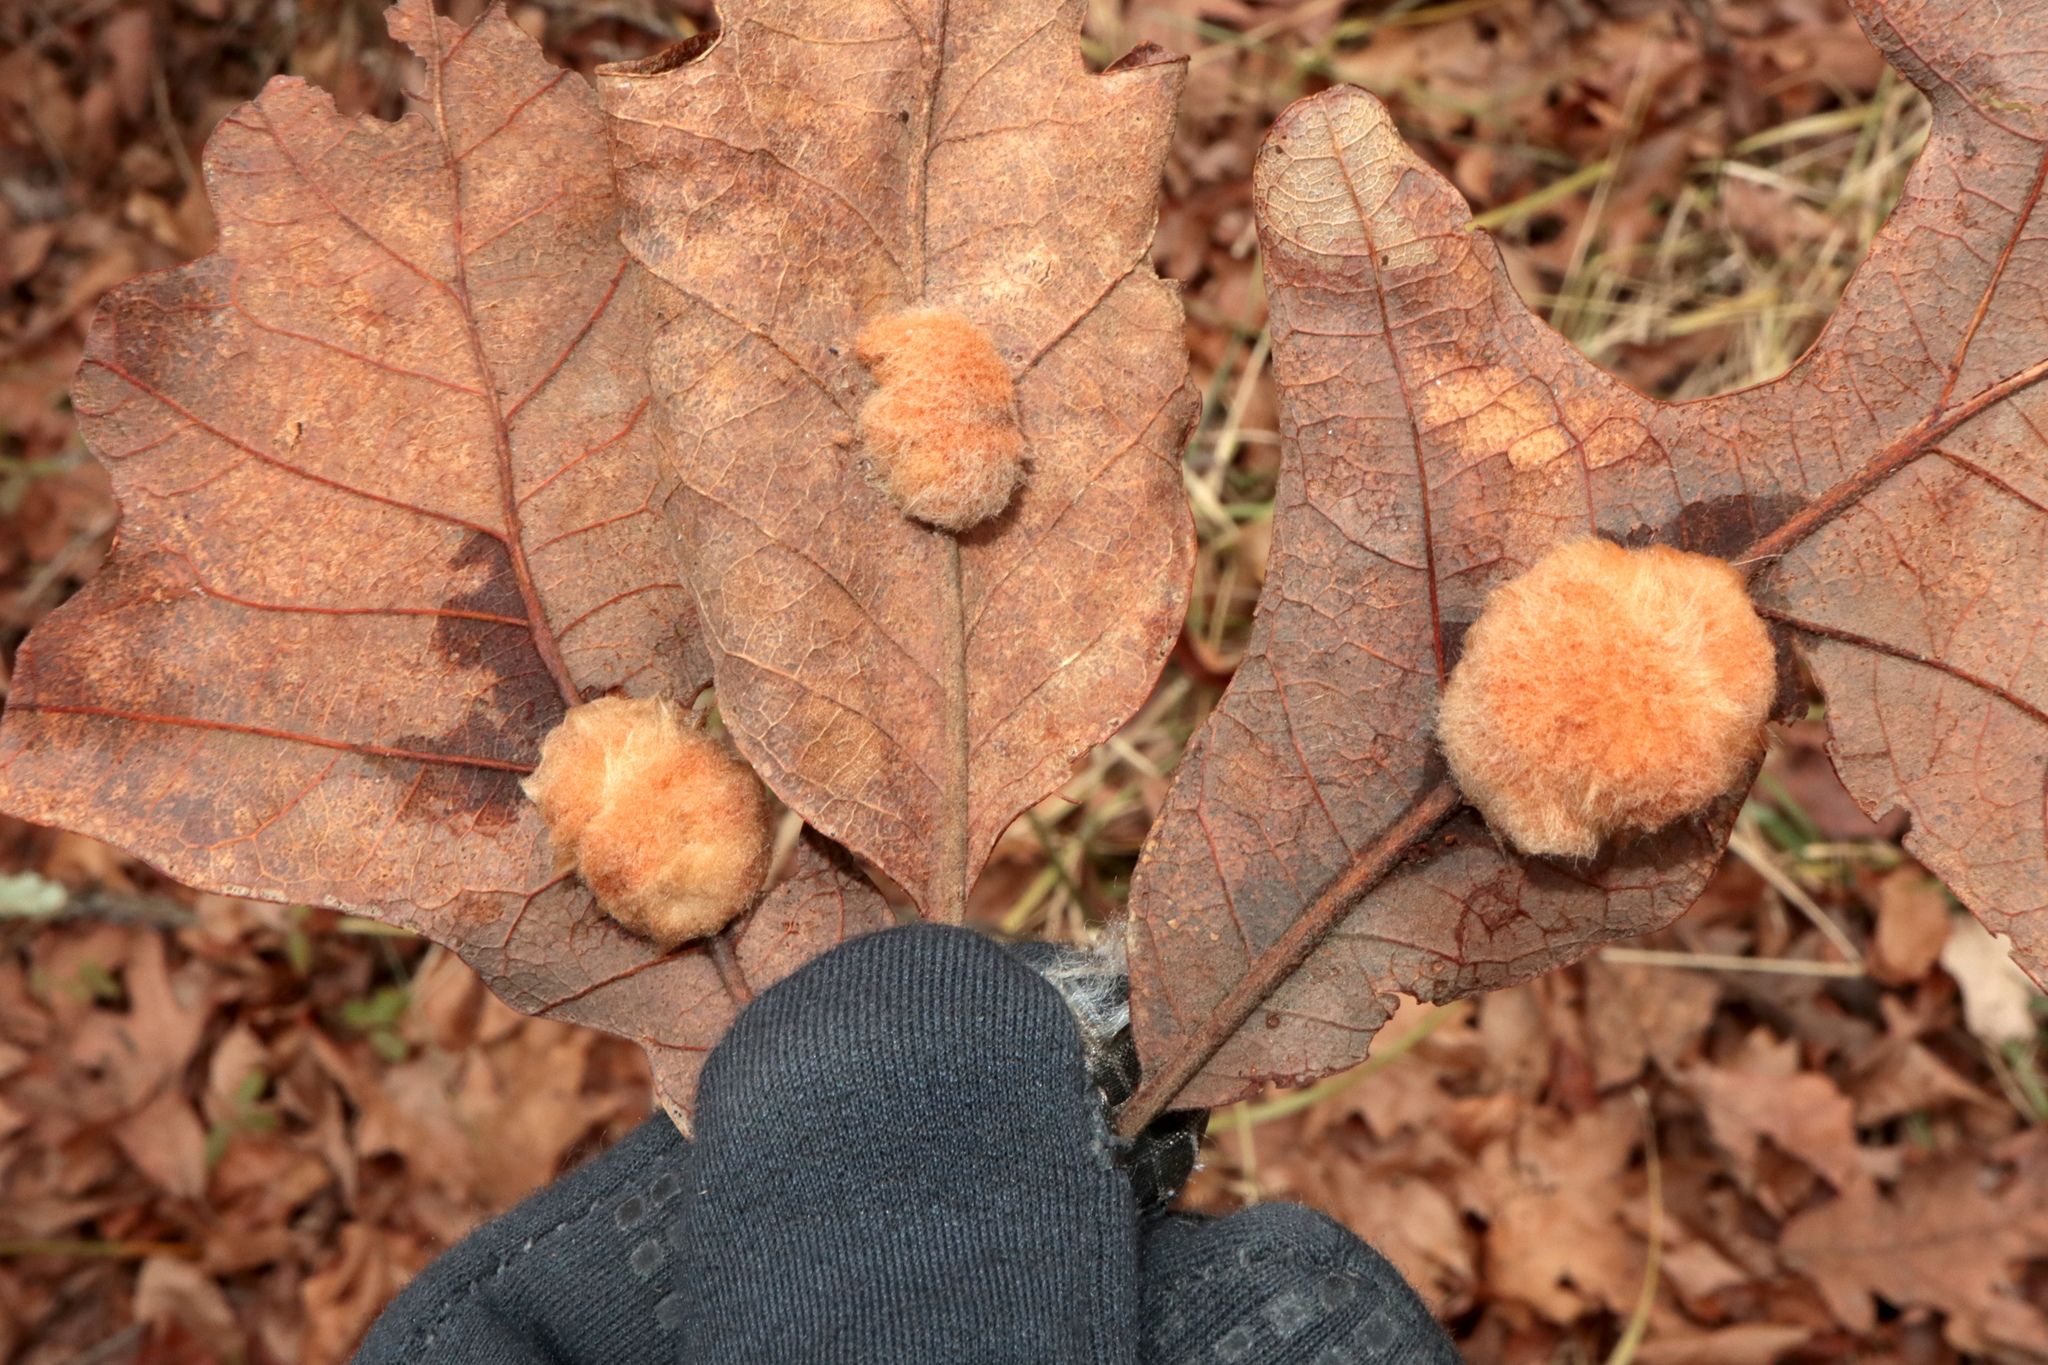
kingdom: Animalia
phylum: Arthropoda
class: Insecta
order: Hymenoptera
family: Cynipidae
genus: Andricus
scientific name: Andricus Druon pattoni
